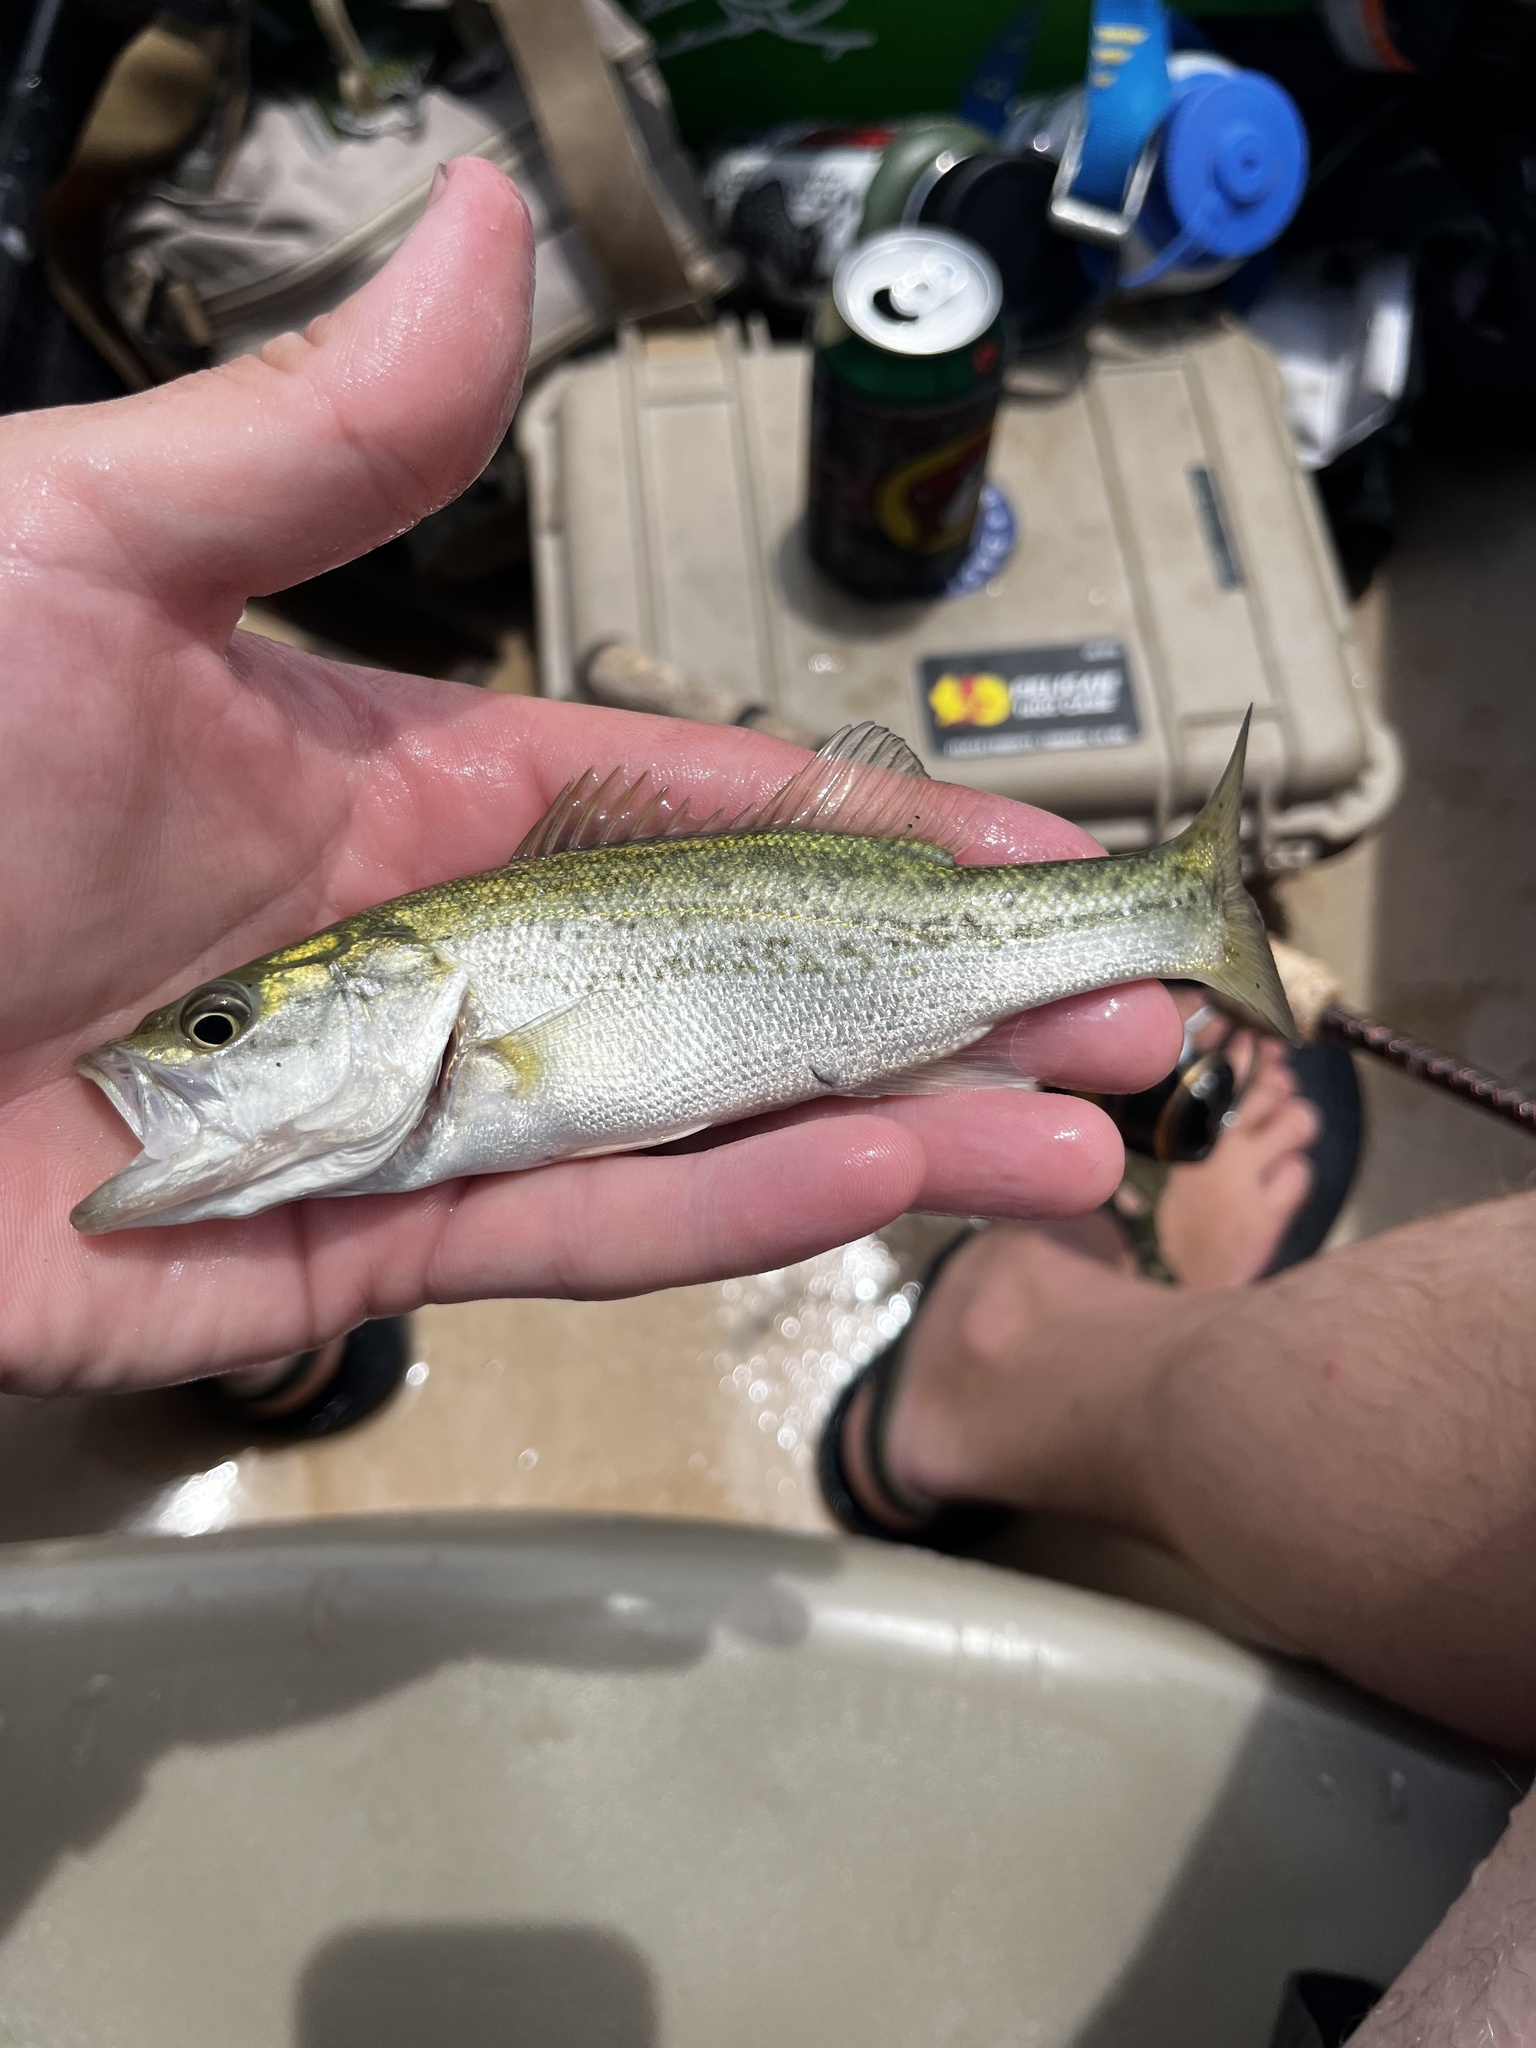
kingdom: Animalia
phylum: Chordata
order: Perciformes
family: Centrarchidae
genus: Micropterus
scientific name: Micropterus
